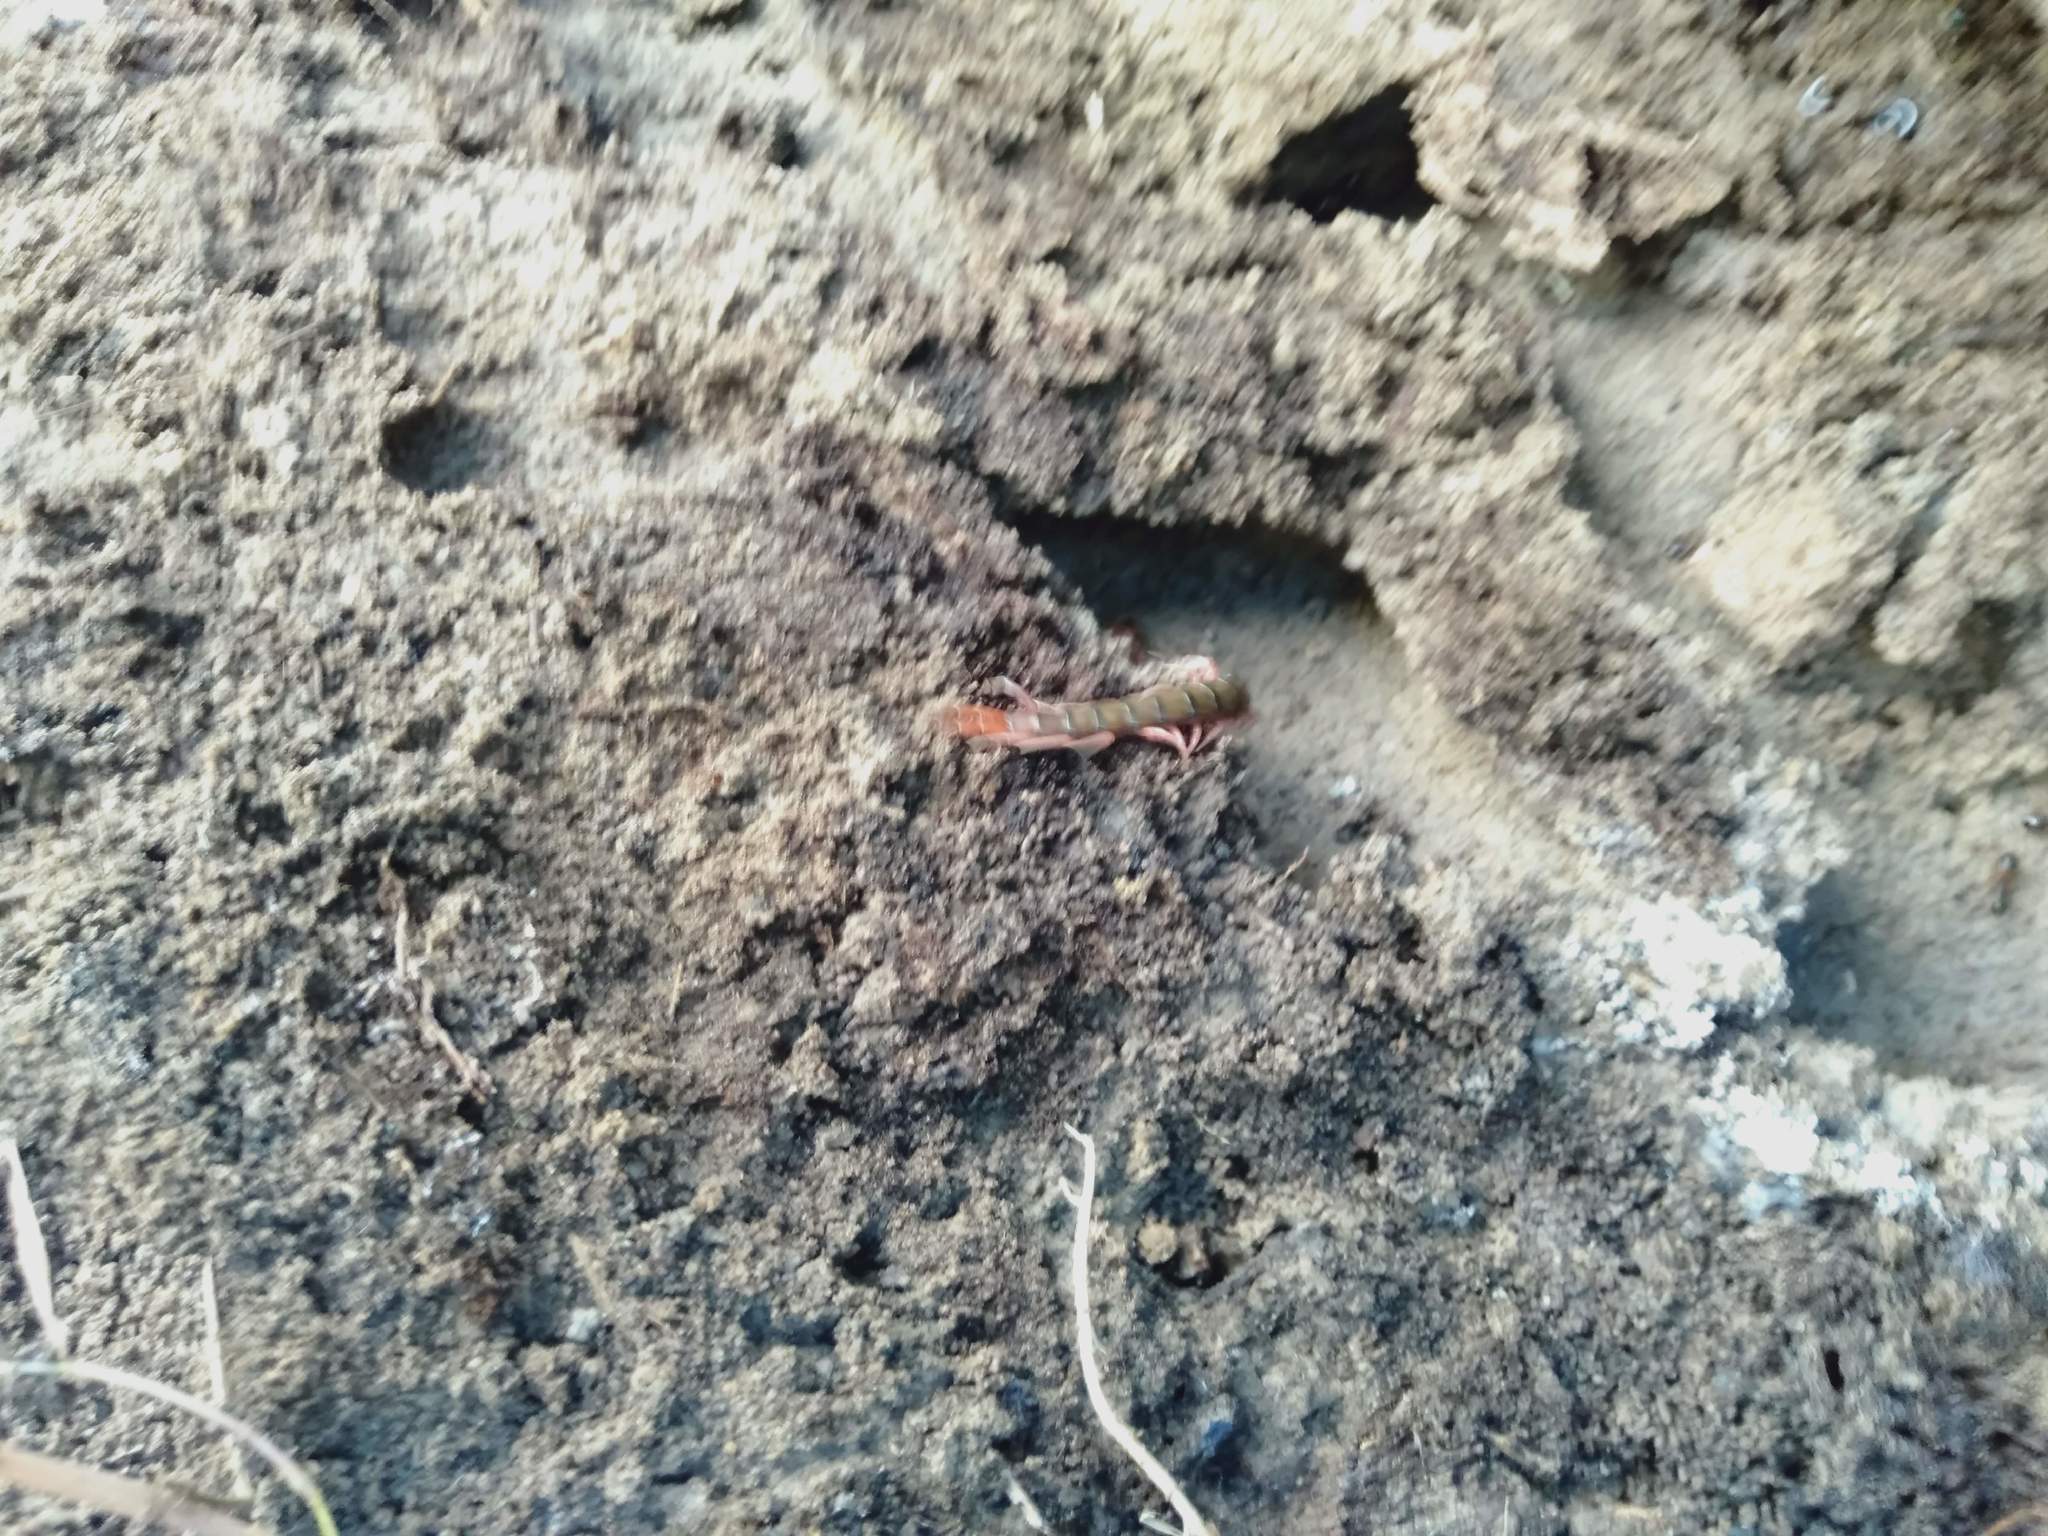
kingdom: Animalia
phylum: Arthropoda
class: Chilopoda
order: Scolopendromorpha
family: Scolopendridae
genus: Cormocephalus
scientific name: Cormocephalus aurantiipes
